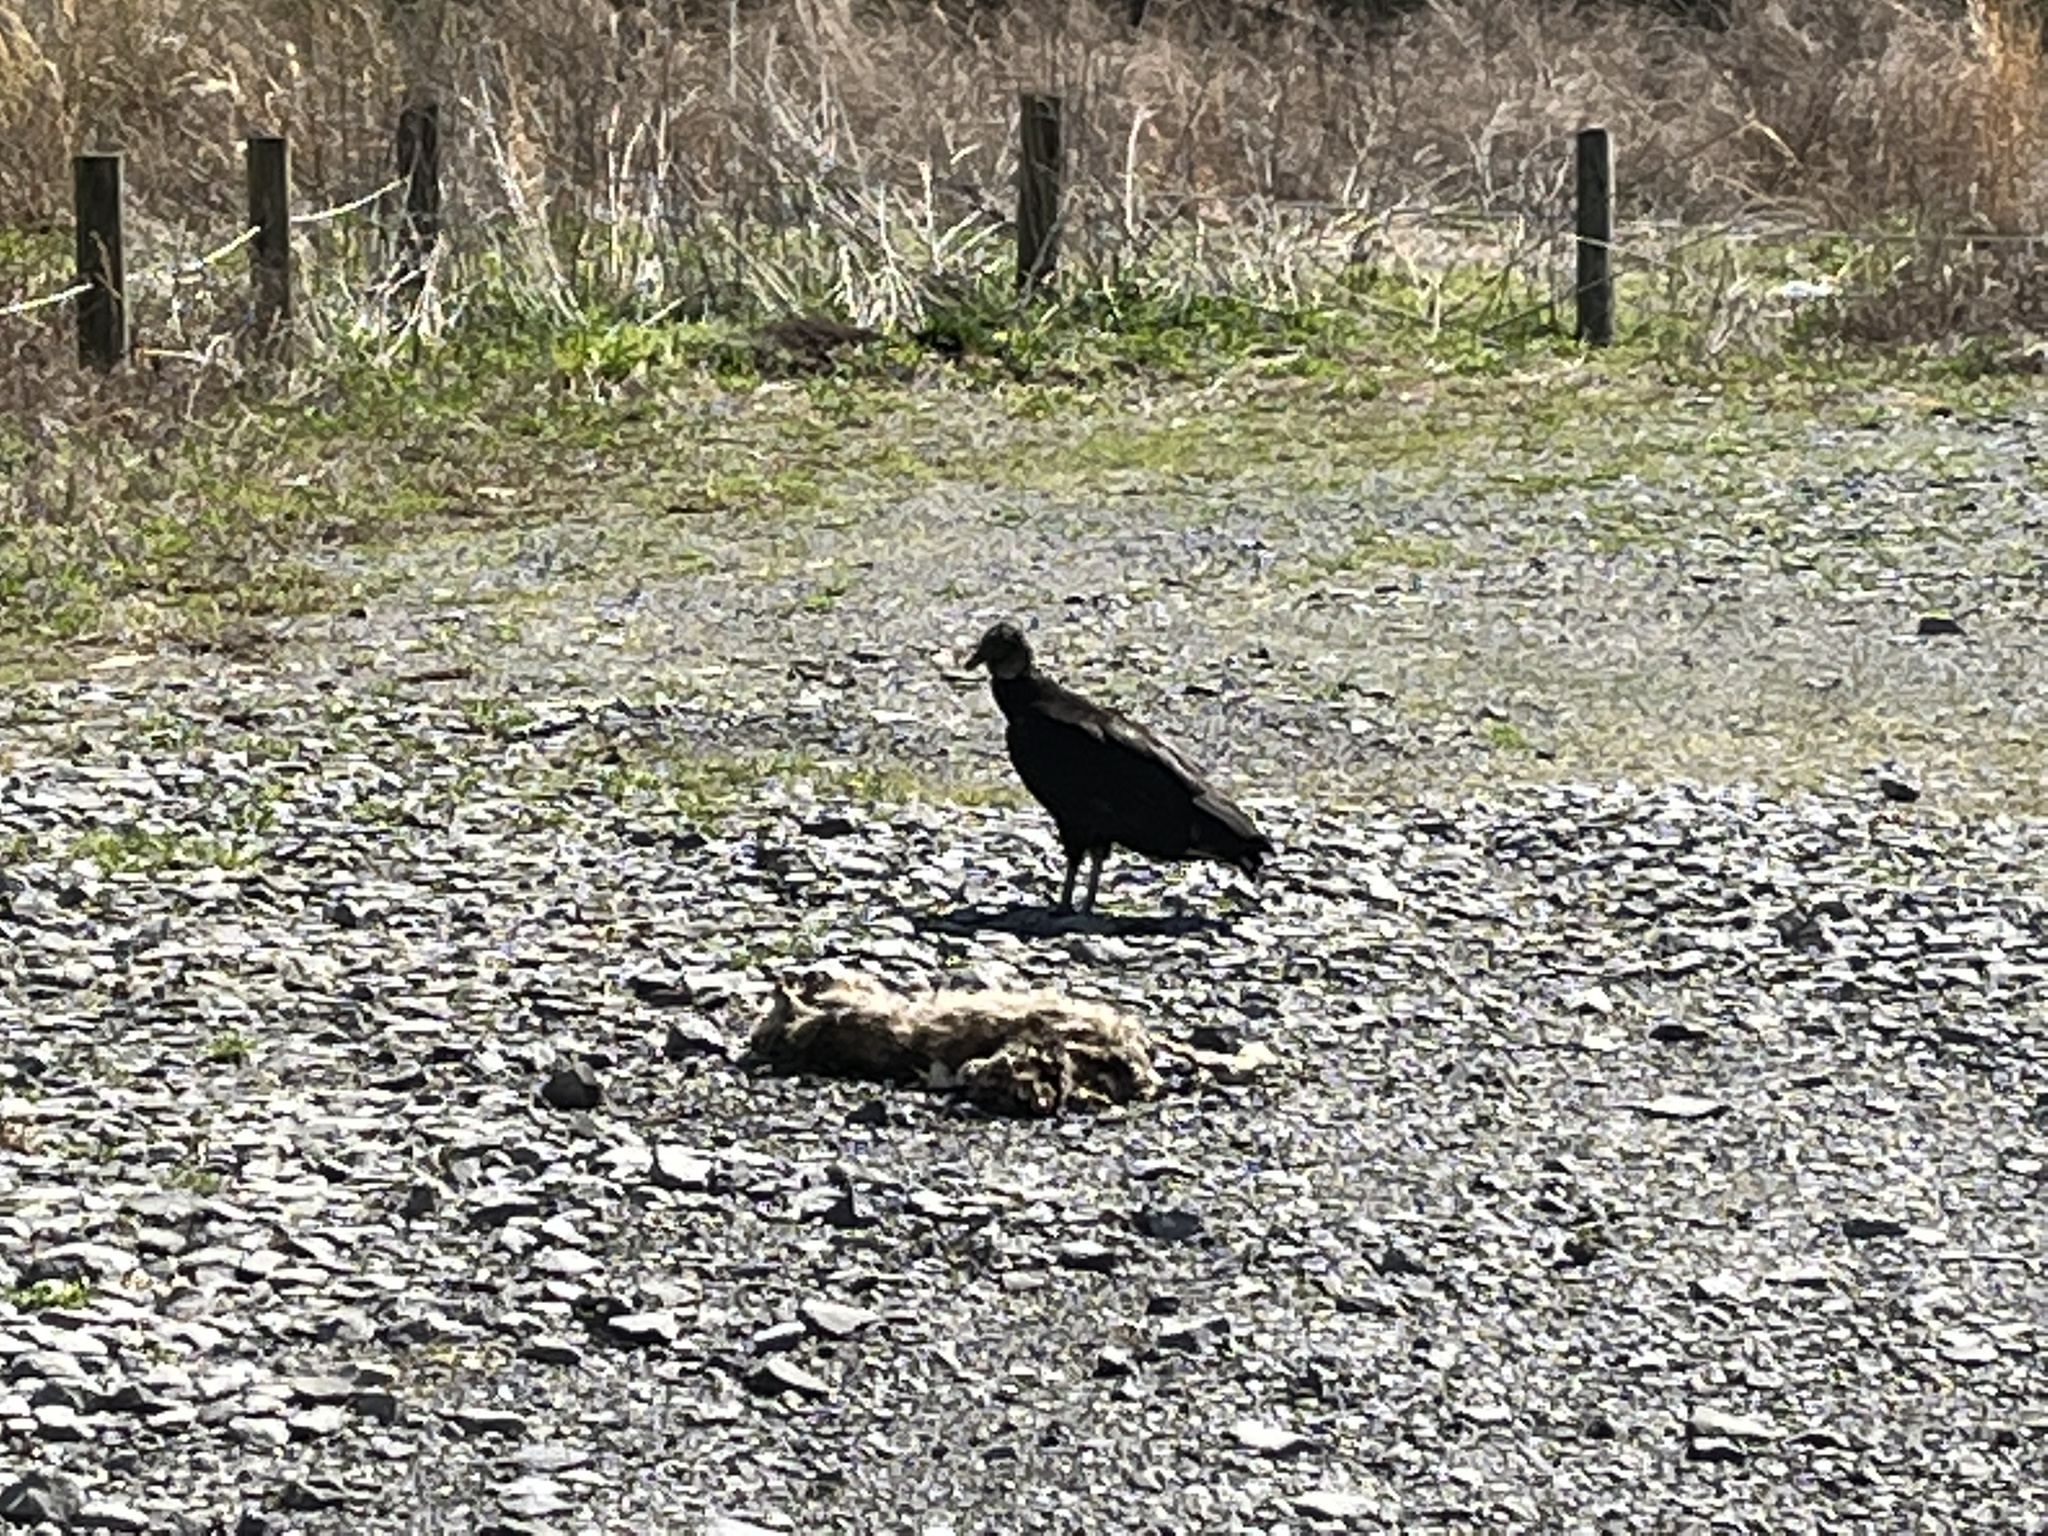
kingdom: Animalia
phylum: Chordata
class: Aves
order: Accipitriformes
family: Cathartidae
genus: Coragyps
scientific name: Coragyps atratus
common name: Black vulture
